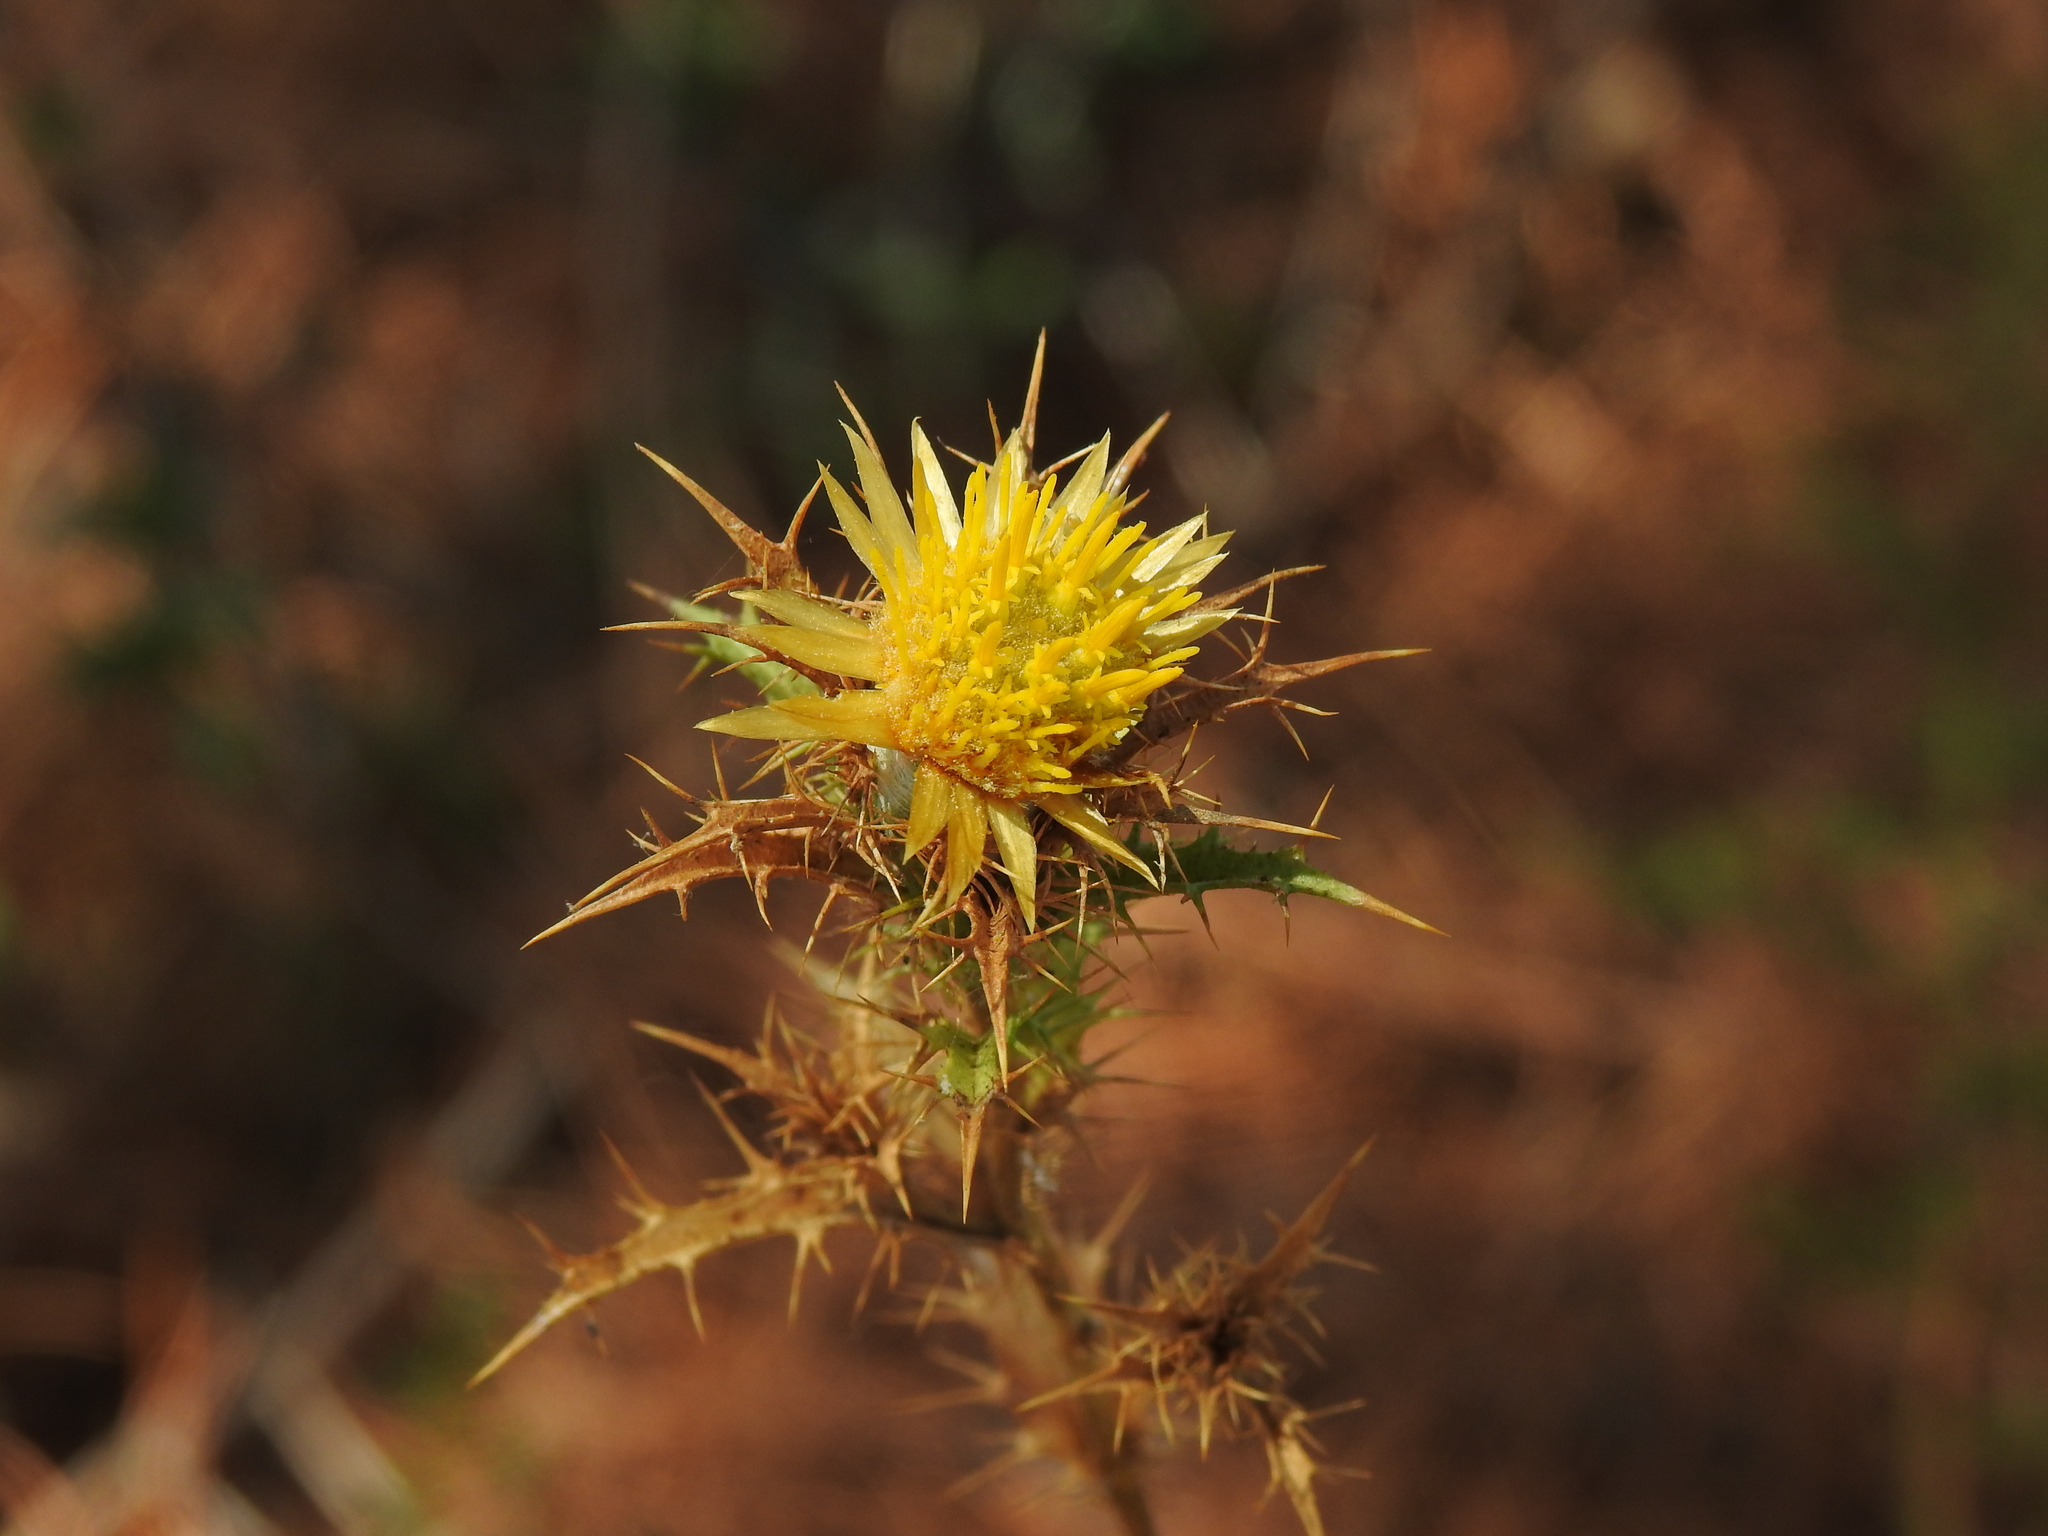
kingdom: Plantae
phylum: Tracheophyta
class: Magnoliopsida
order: Asterales
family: Asteraceae
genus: Carlina
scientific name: Carlina hispanica
